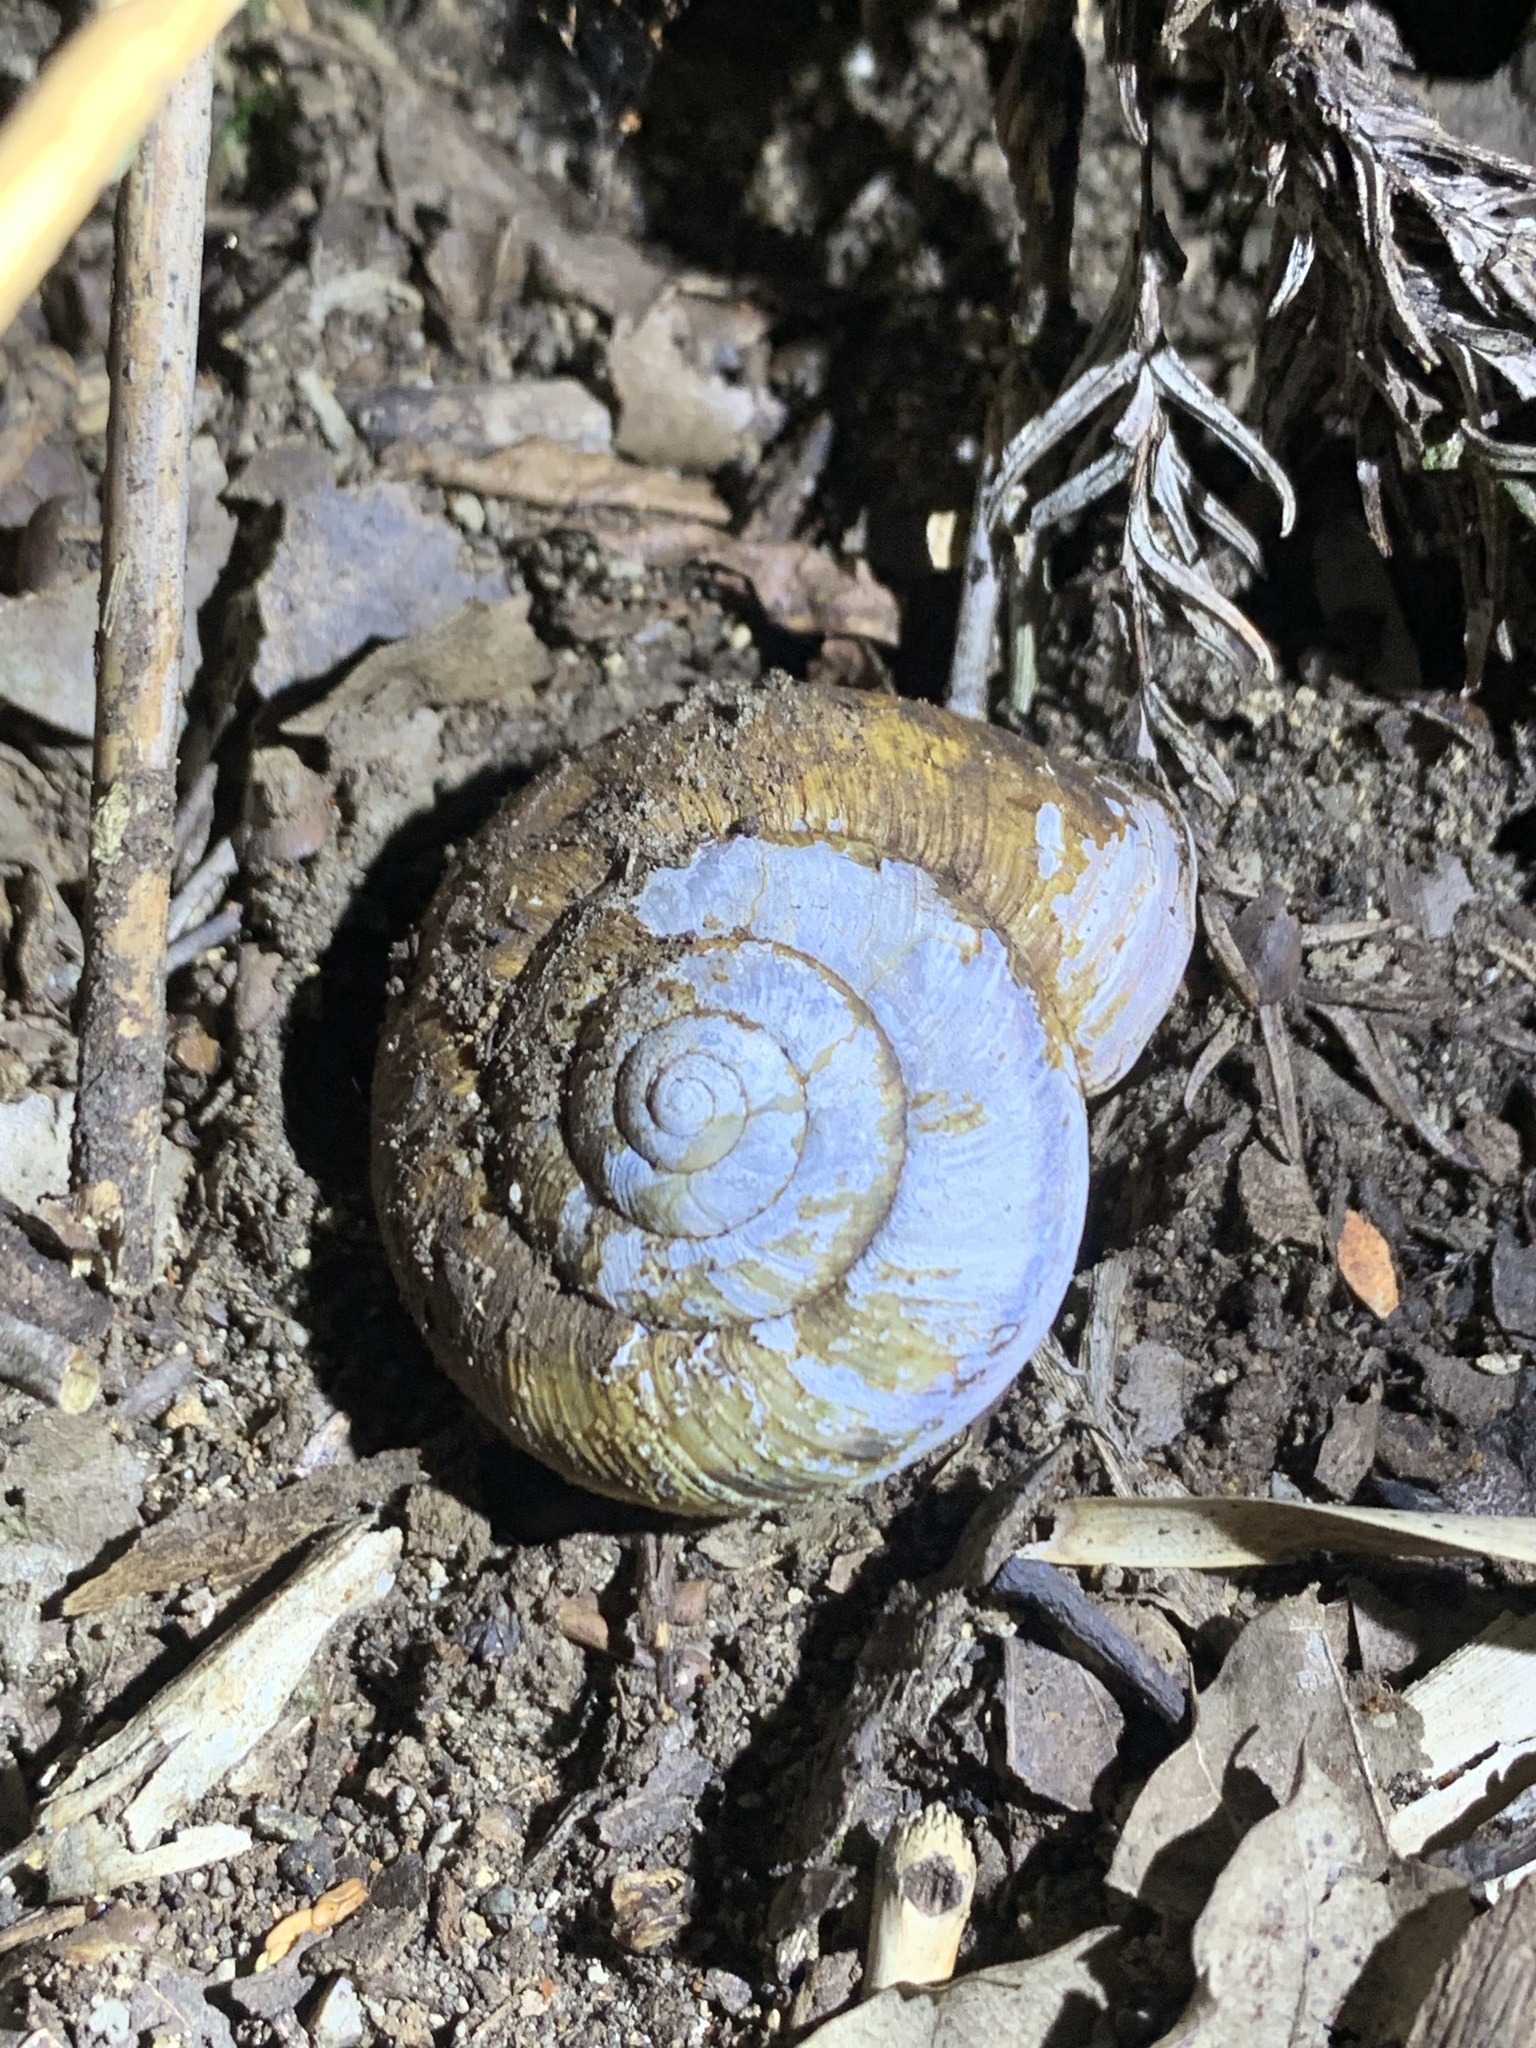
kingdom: Animalia
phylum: Mollusca
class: Gastropoda
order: Stylommatophora
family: Camaenidae
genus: Euhadra
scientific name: Euhadra sandai
